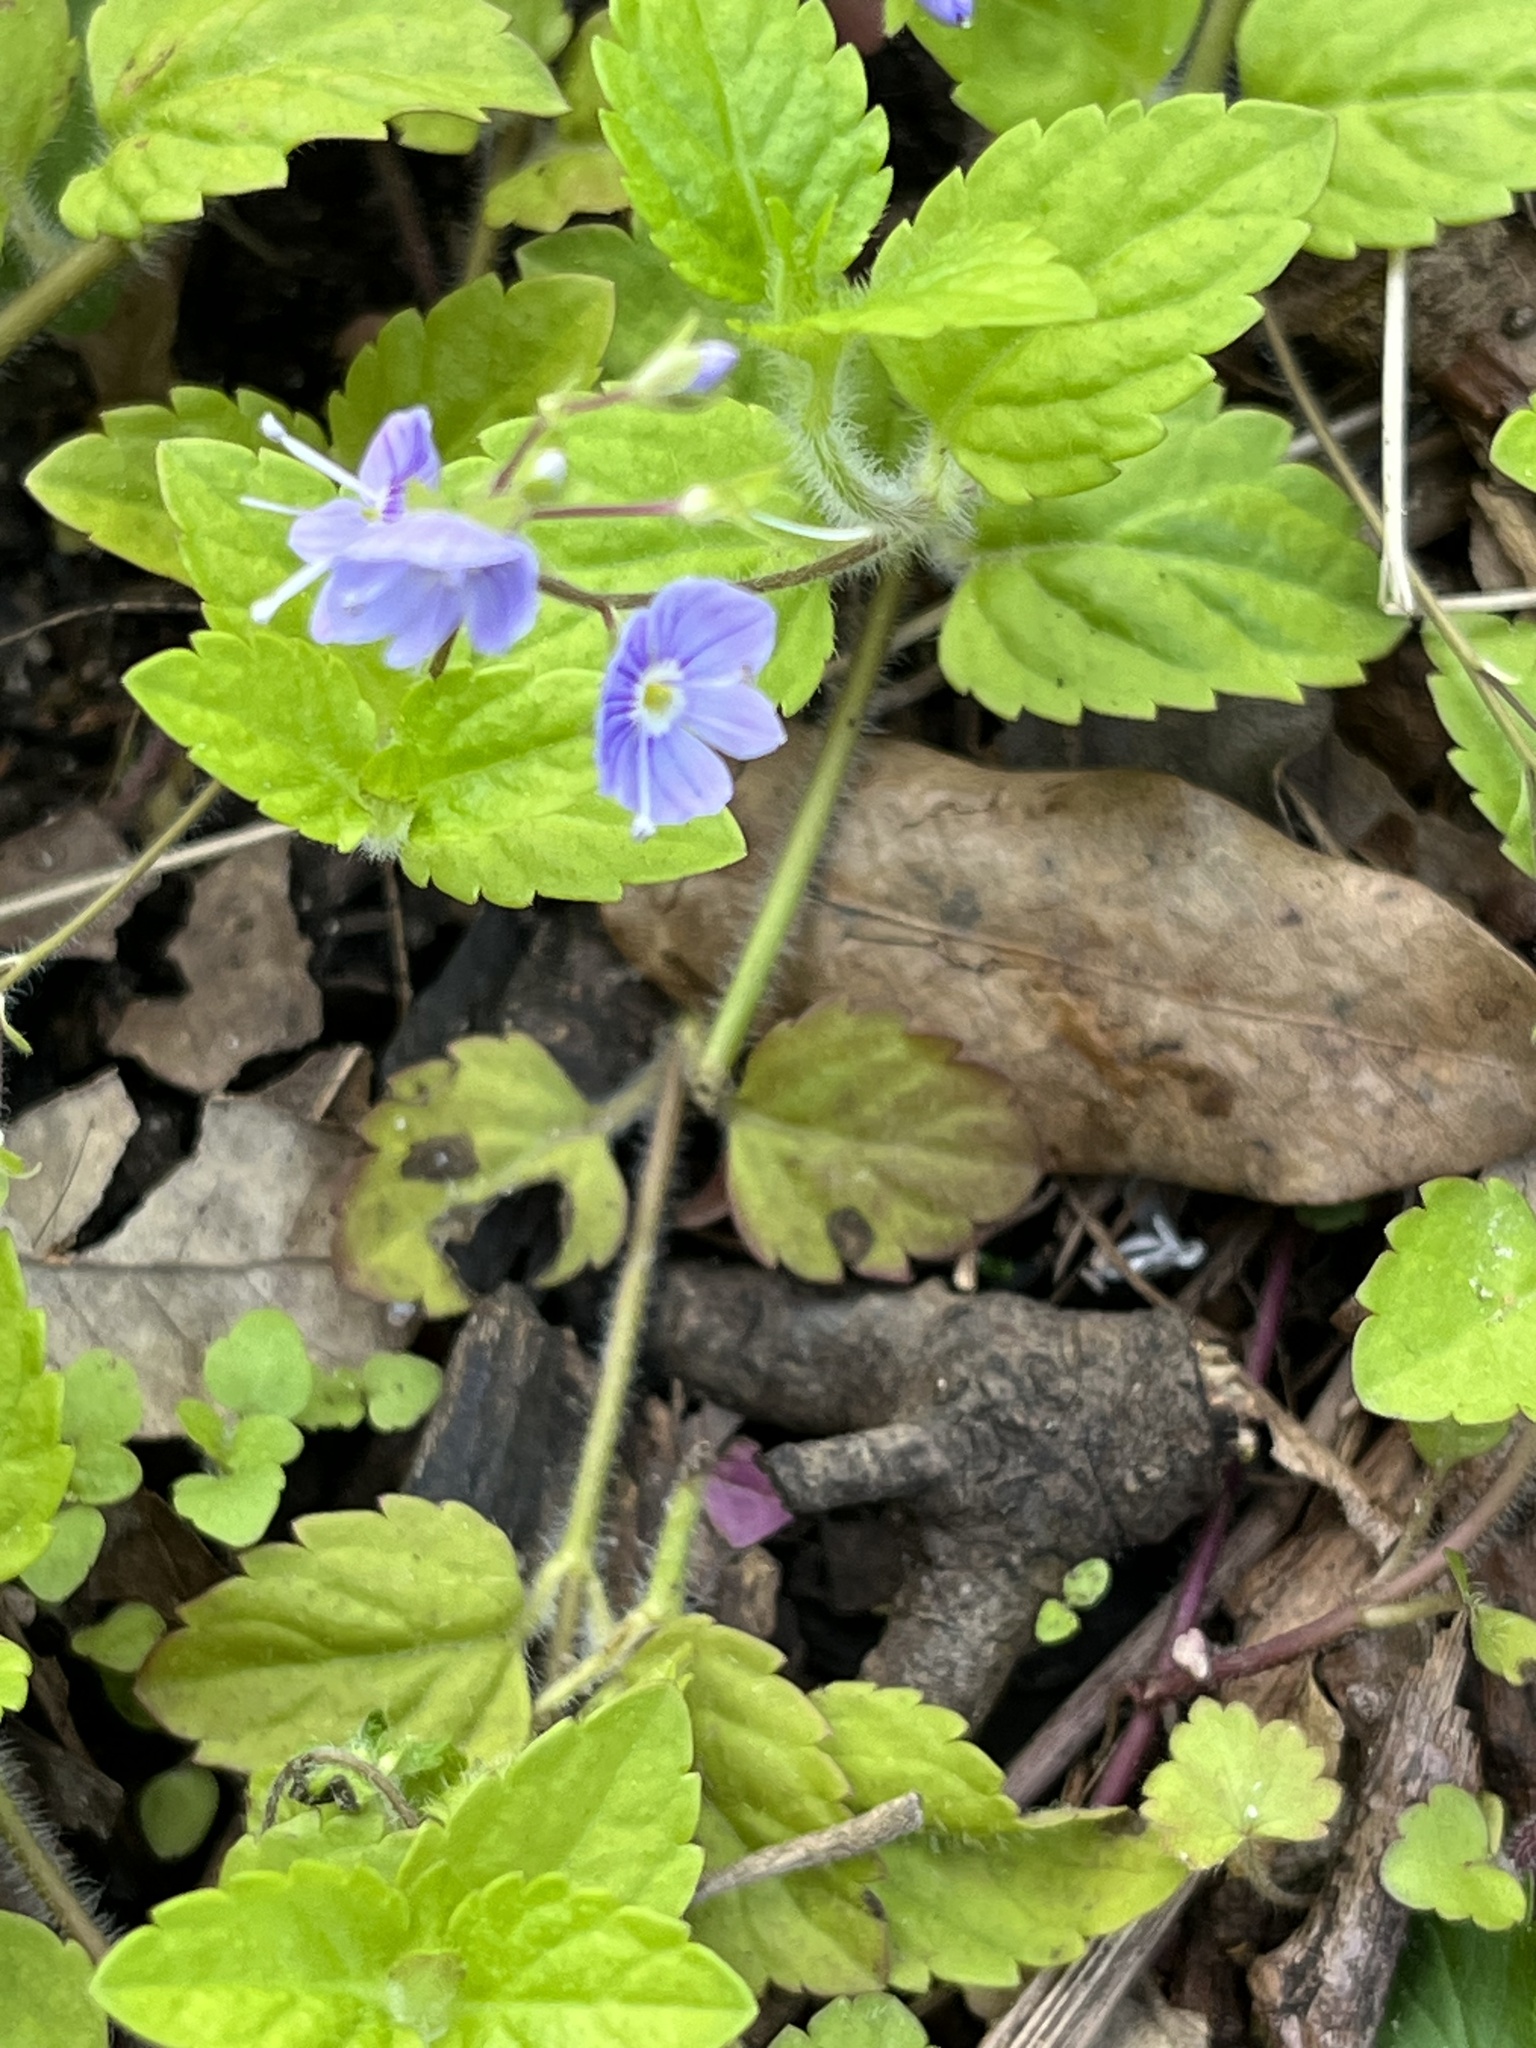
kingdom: Plantae
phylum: Tracheophyta
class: Magnoliopsida
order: Lamiales
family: Plantaginaceae
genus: Veronica
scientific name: Veronica montana
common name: Wood speedwell
